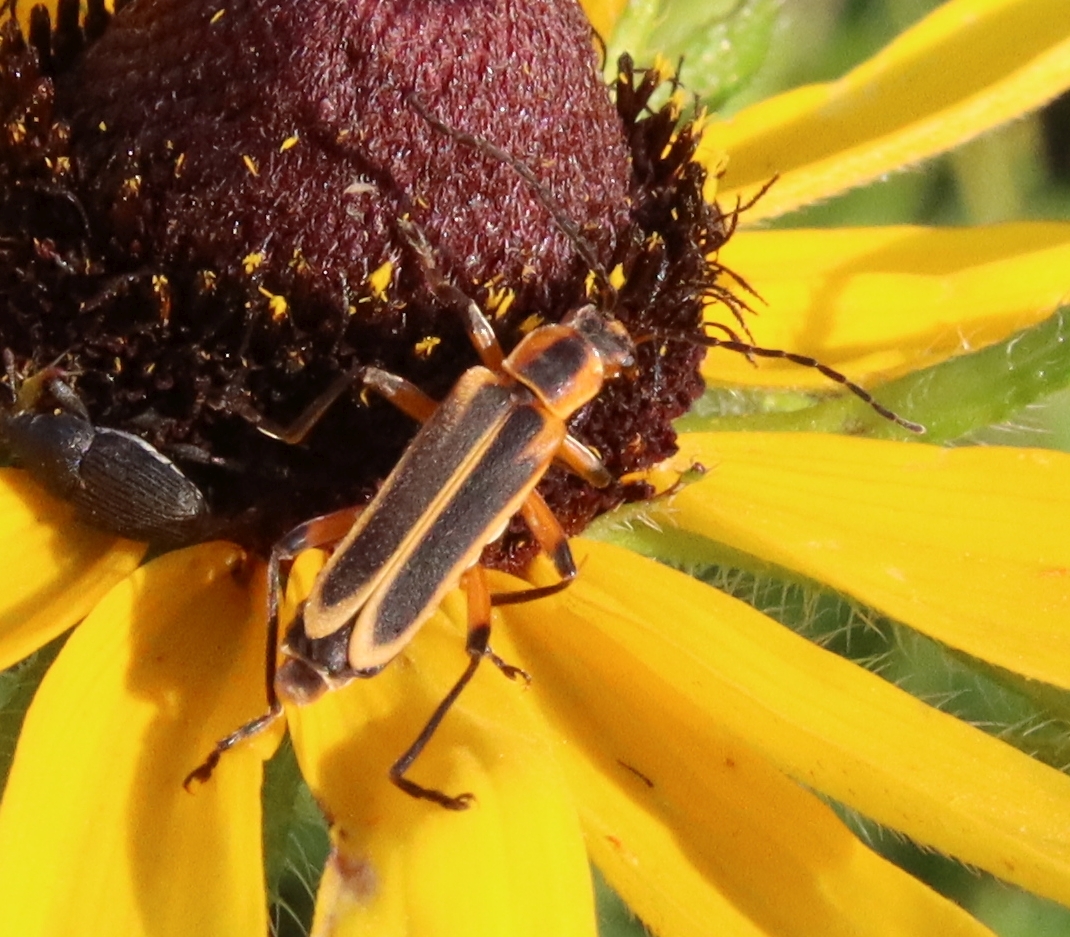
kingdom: Animalia
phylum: Arthropoda
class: Insecta
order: Coleoptera
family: Cantharidae
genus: Chauliognathus
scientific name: Chauliognathus marginatus
